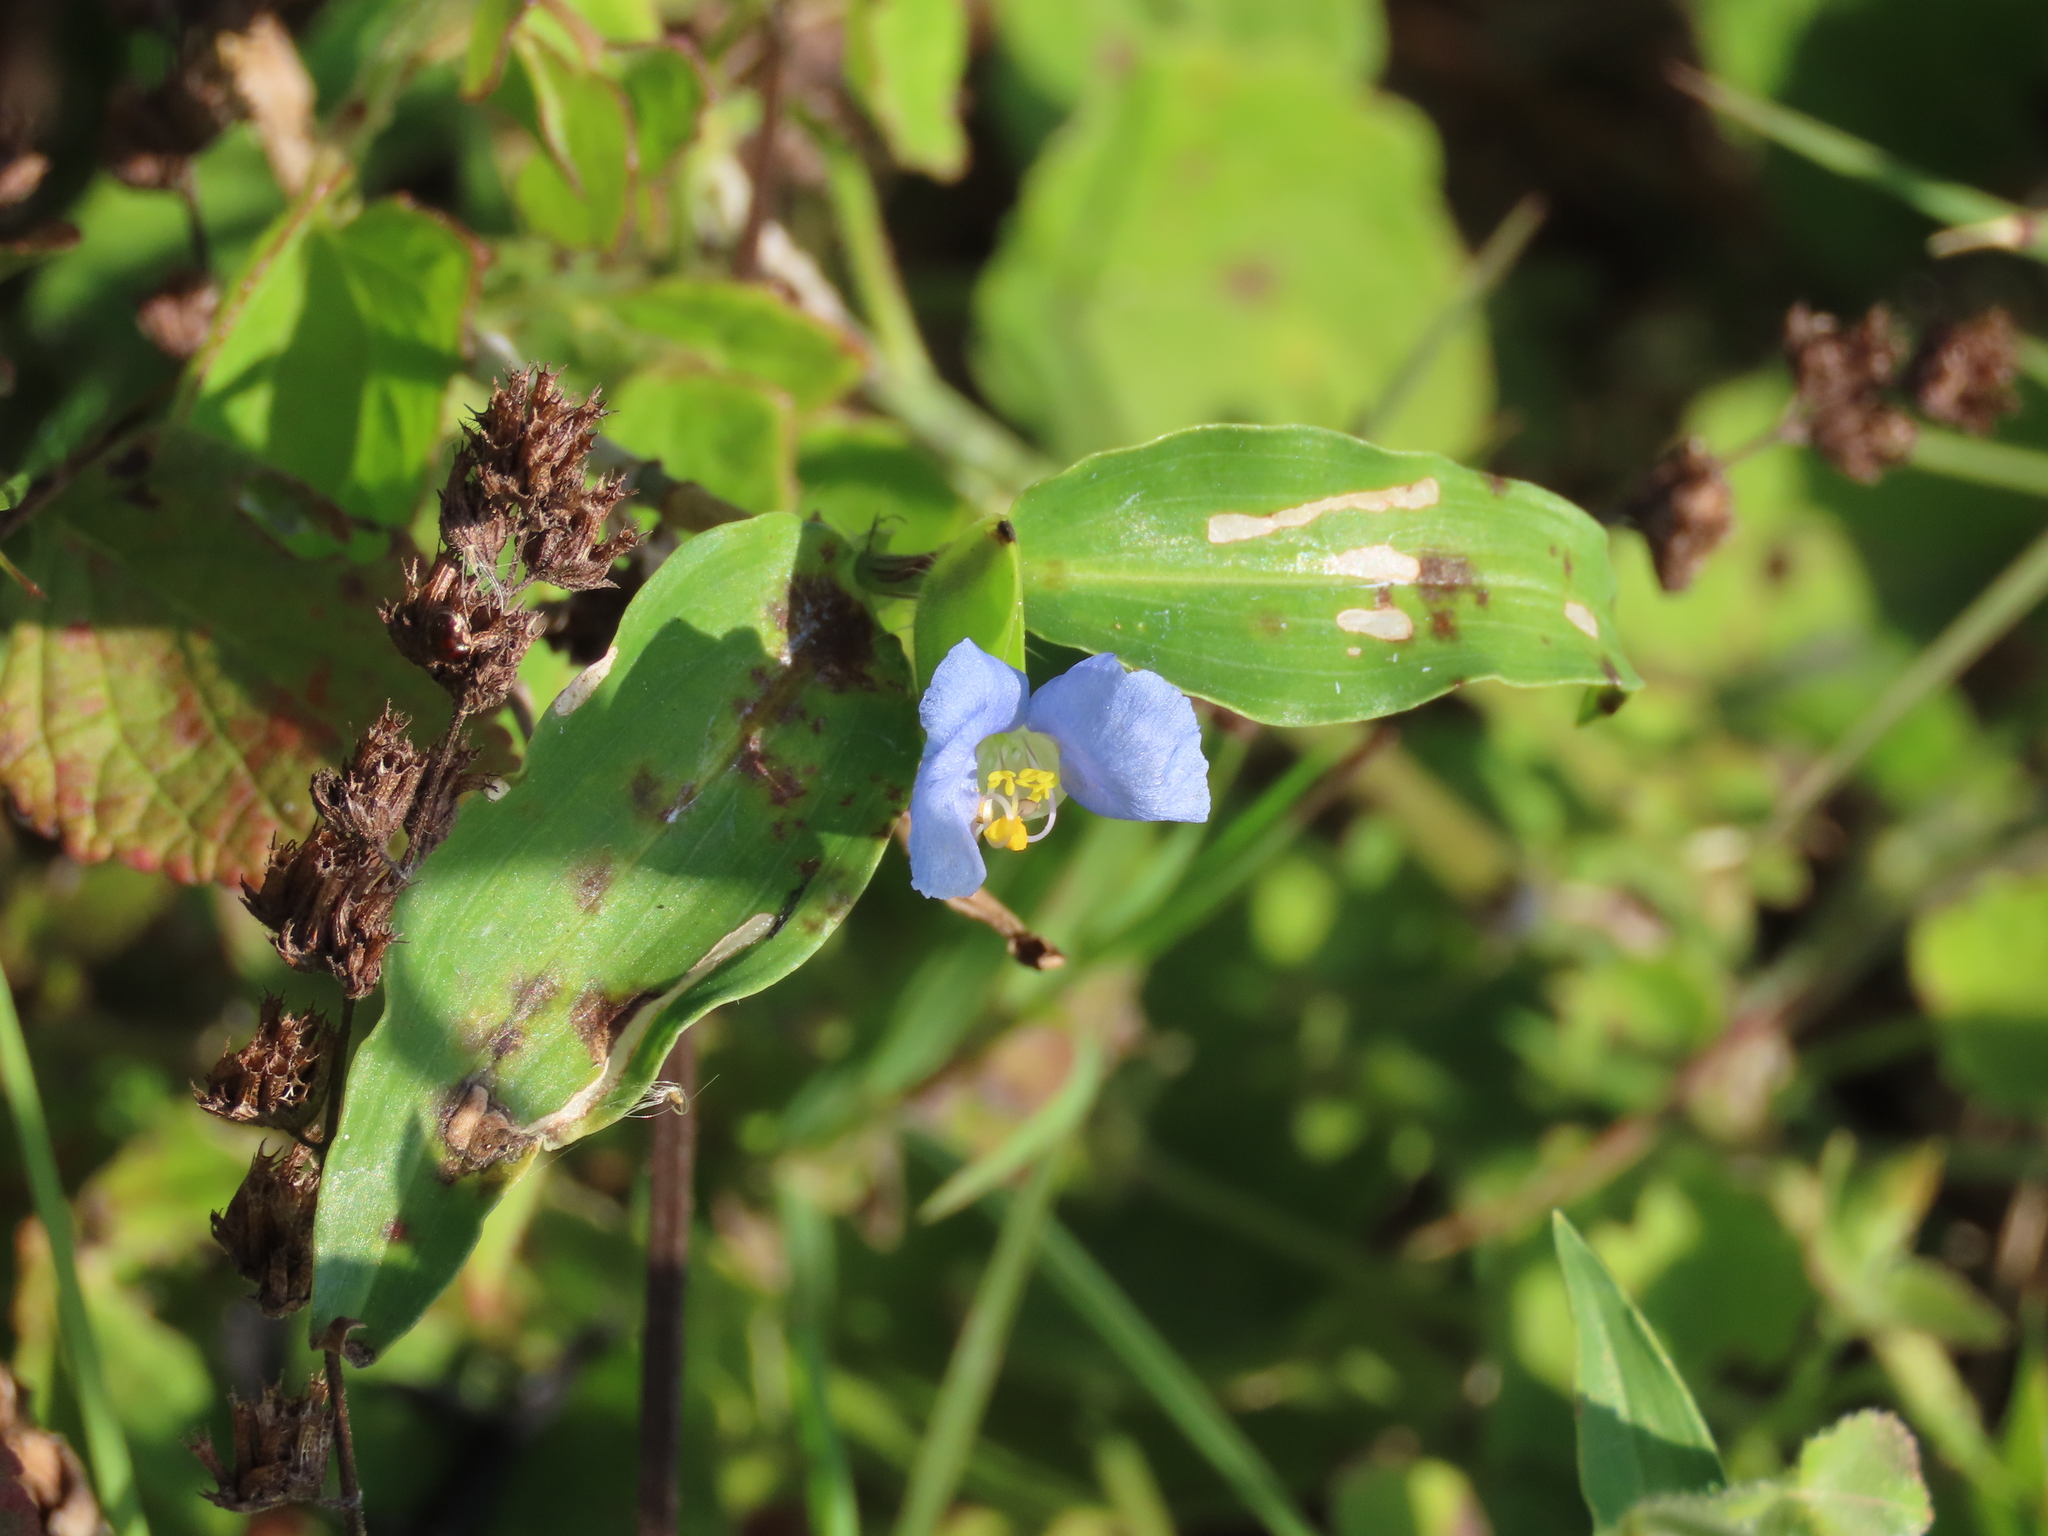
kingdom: Plantae
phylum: Tracheophyta
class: Liliopsida
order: Commelinales
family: Commelinaceae
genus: Commelina
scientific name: Commelina erecta
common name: Blousel blommetjie
